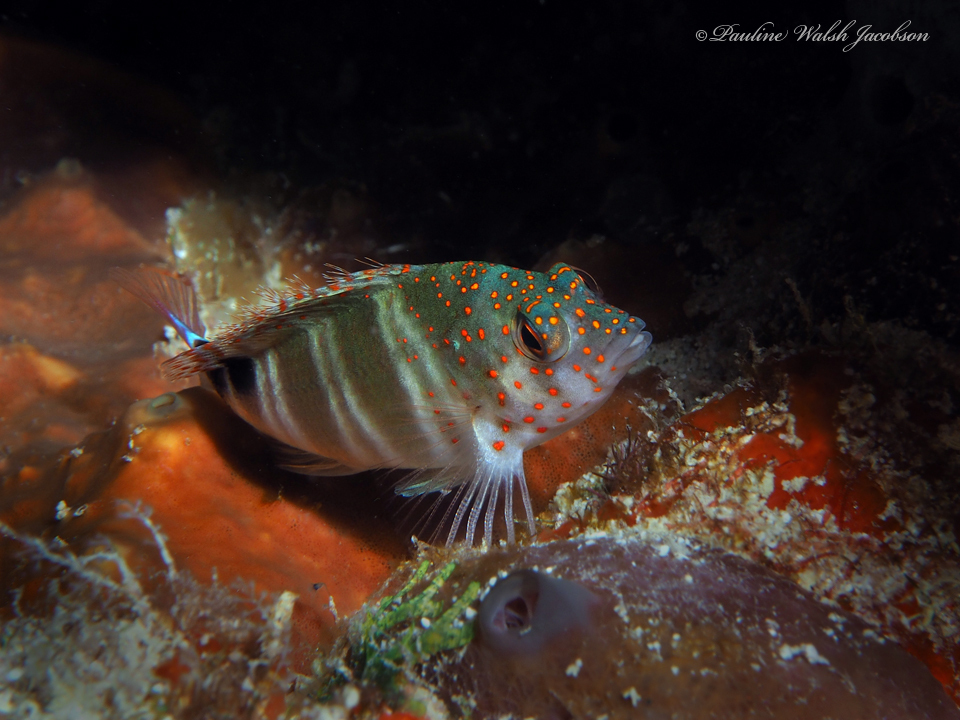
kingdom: Animalia
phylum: Chordata
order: Perciformes
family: Cirrhitidae
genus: Amblycirrhitus
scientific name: Amblycirrhitus pinos
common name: Redspotted hawkfish
